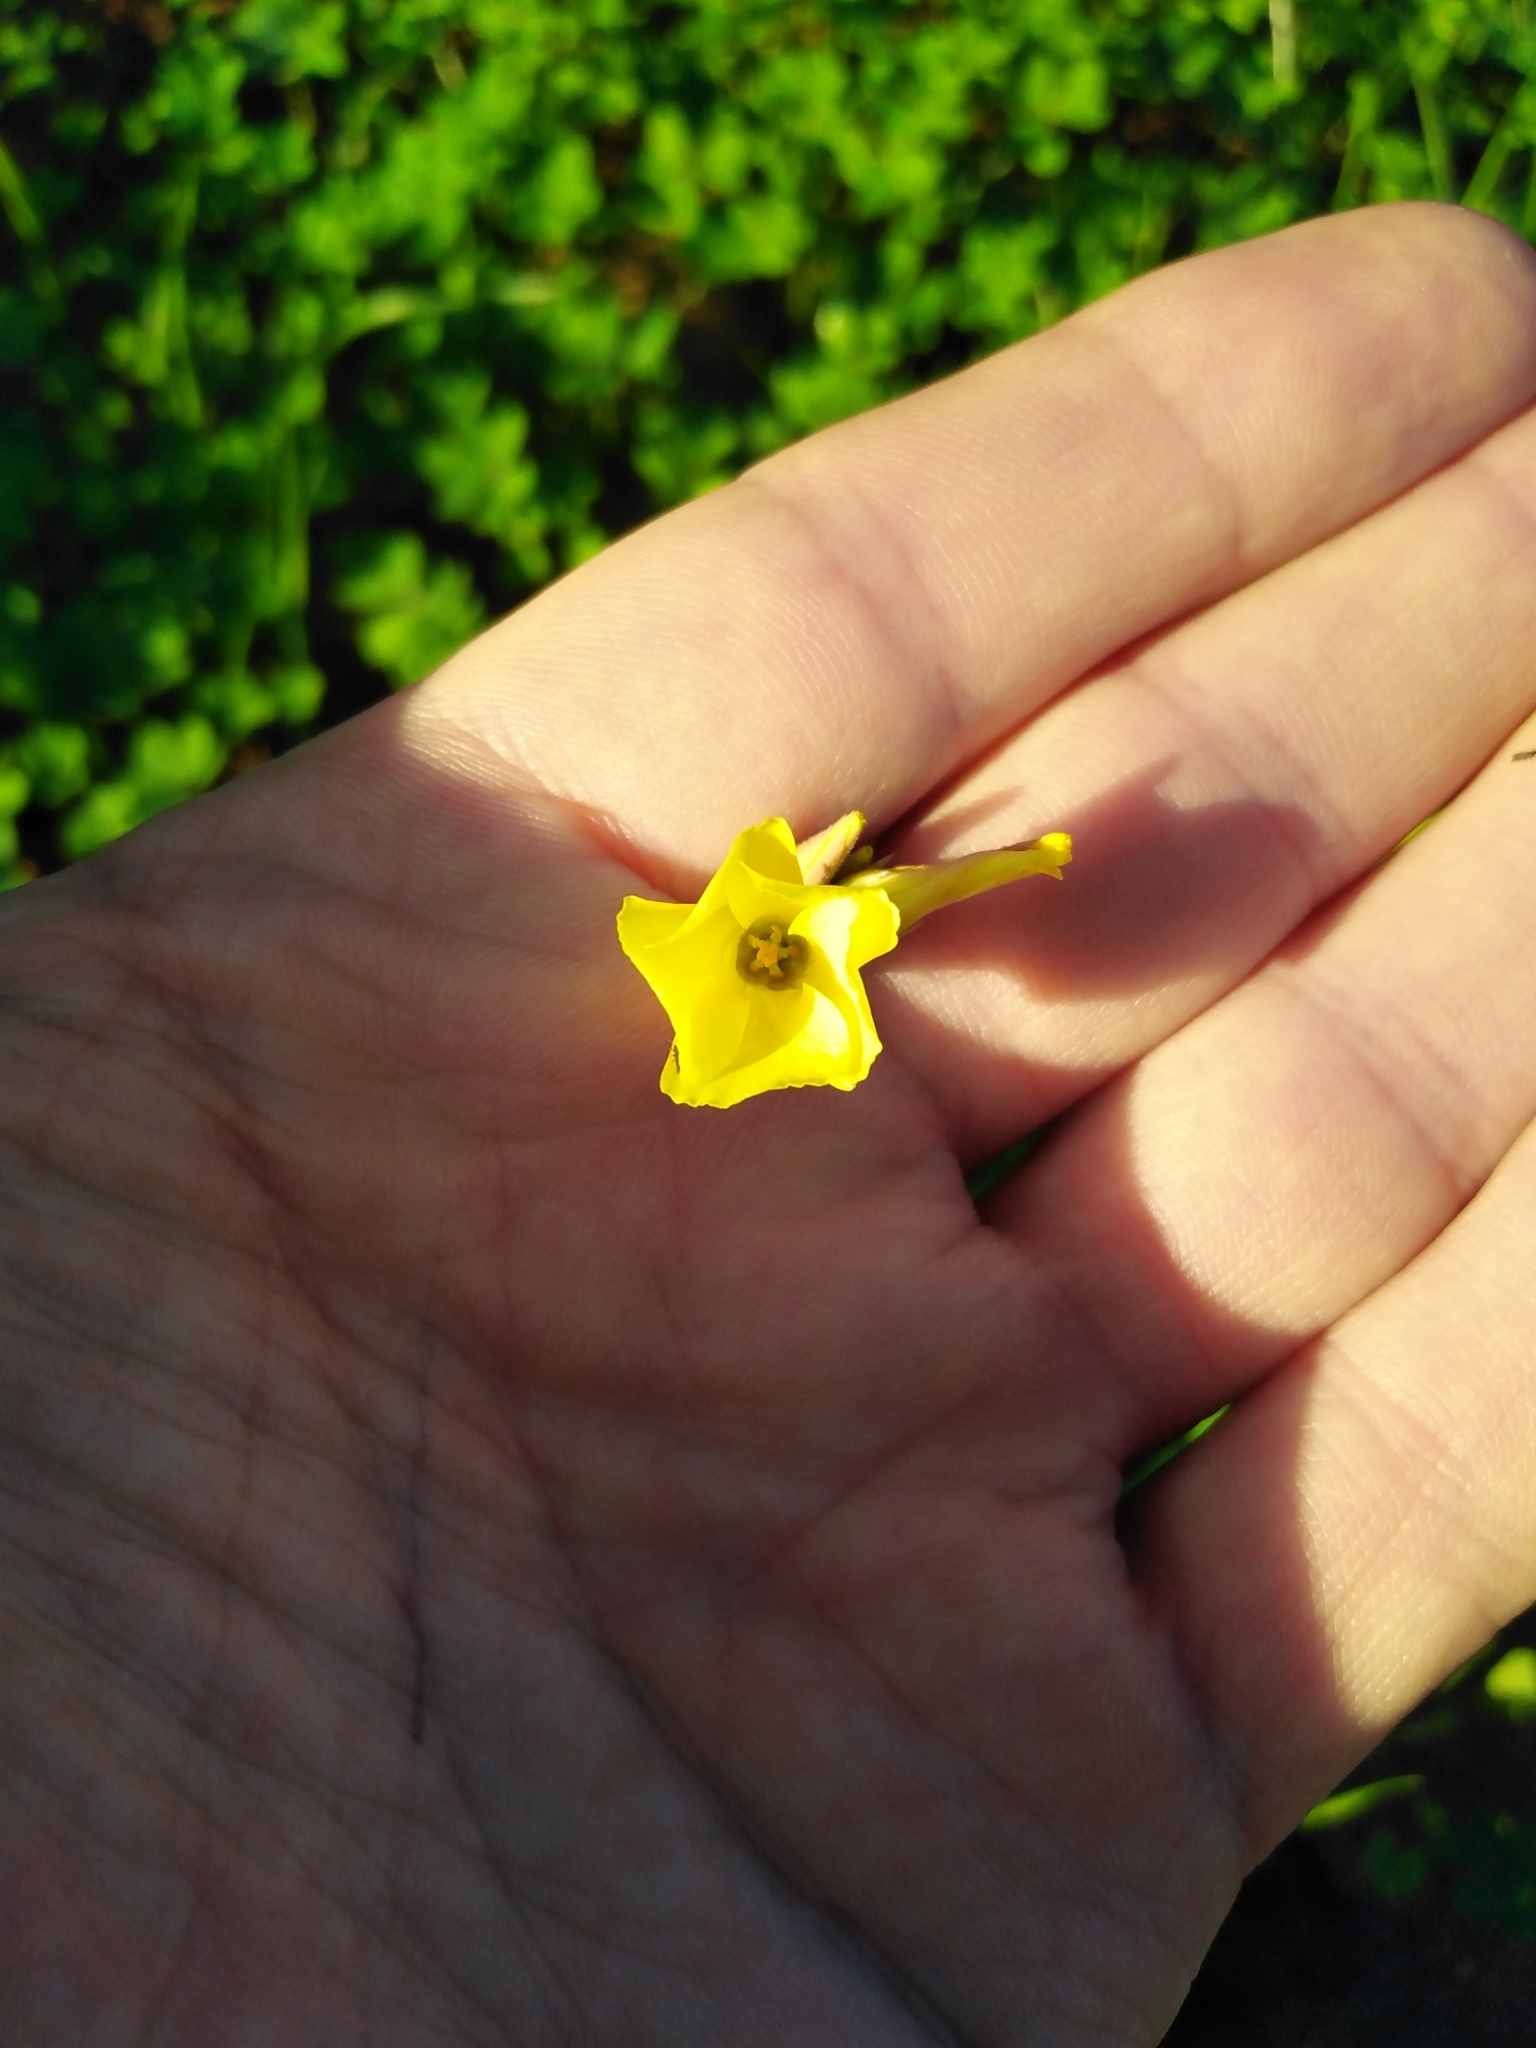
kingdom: Plantae
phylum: Tracheophyta
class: Magnoliopsida
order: Oxalidales
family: Oxalidaceae
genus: Oxalis
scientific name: Oxalis pes-caprae
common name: Bermuda-buttercup
